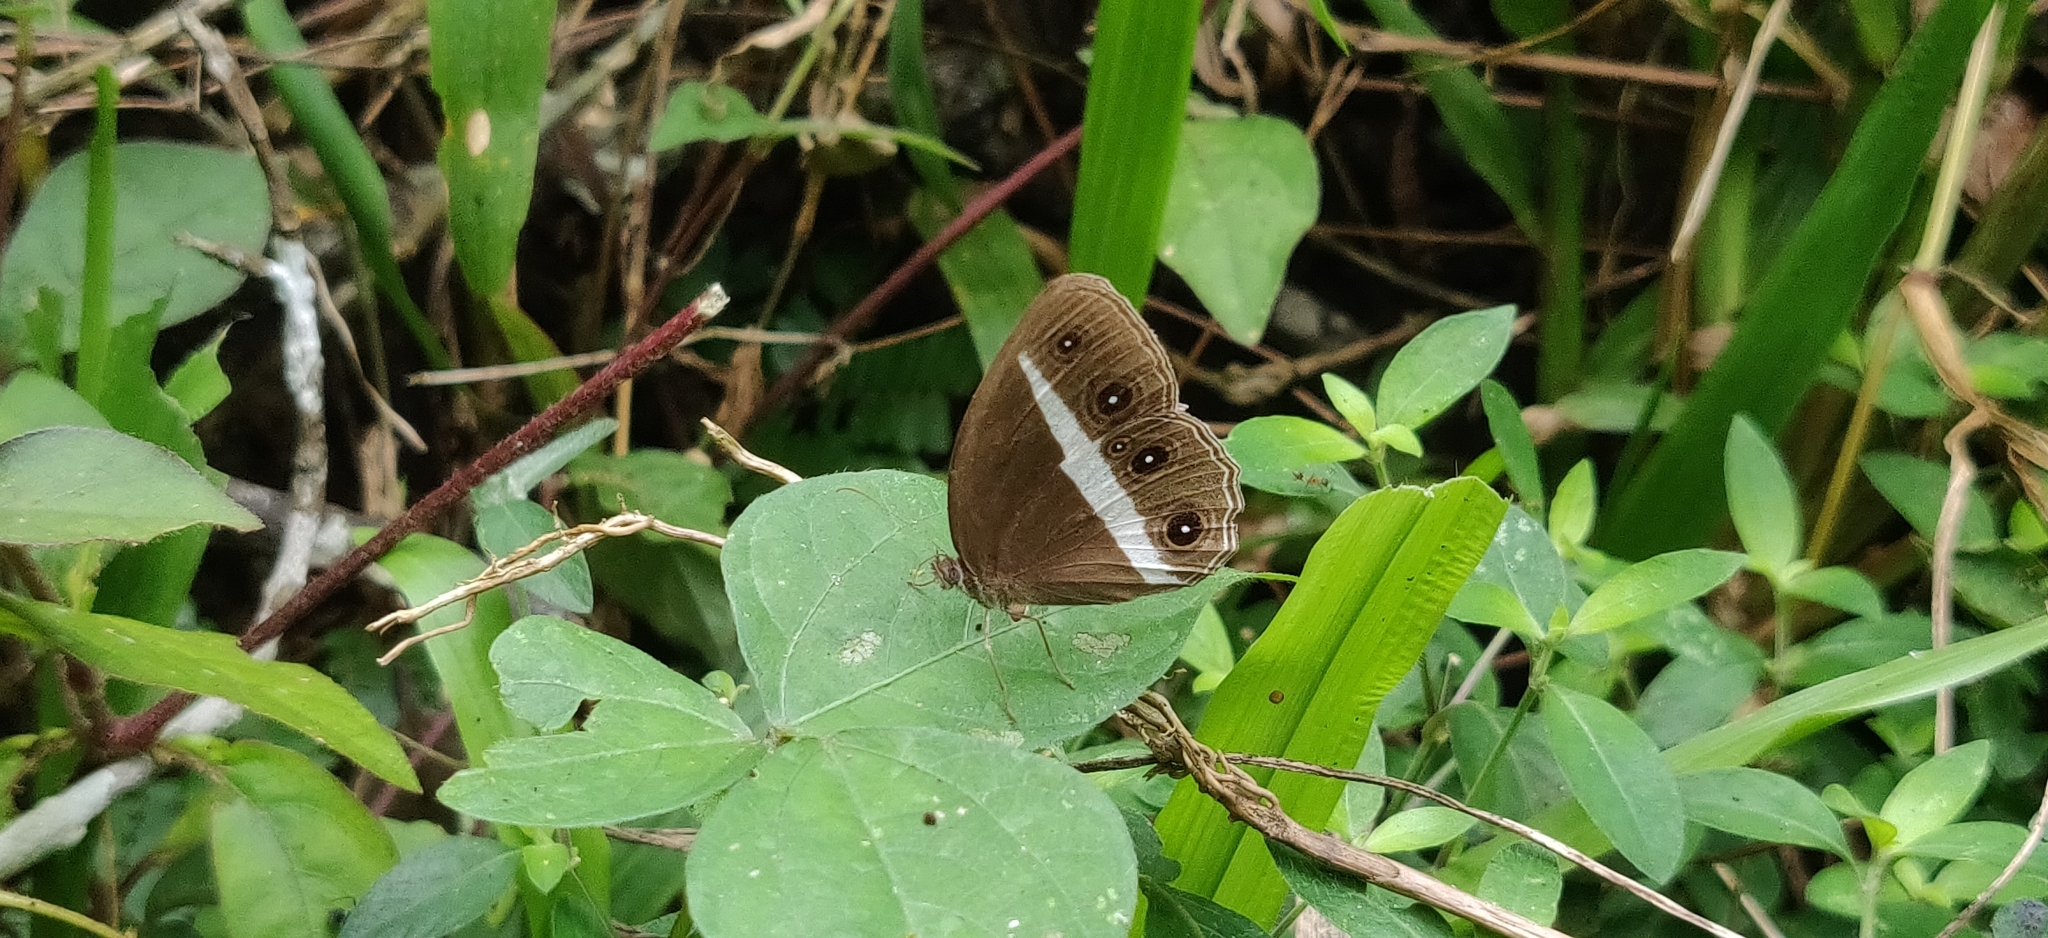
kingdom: Animalia
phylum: Arthropoda
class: Insecta
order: Lepidoptera
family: Nymphalidae
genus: Orsotriaena
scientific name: Orsotriaena medus
